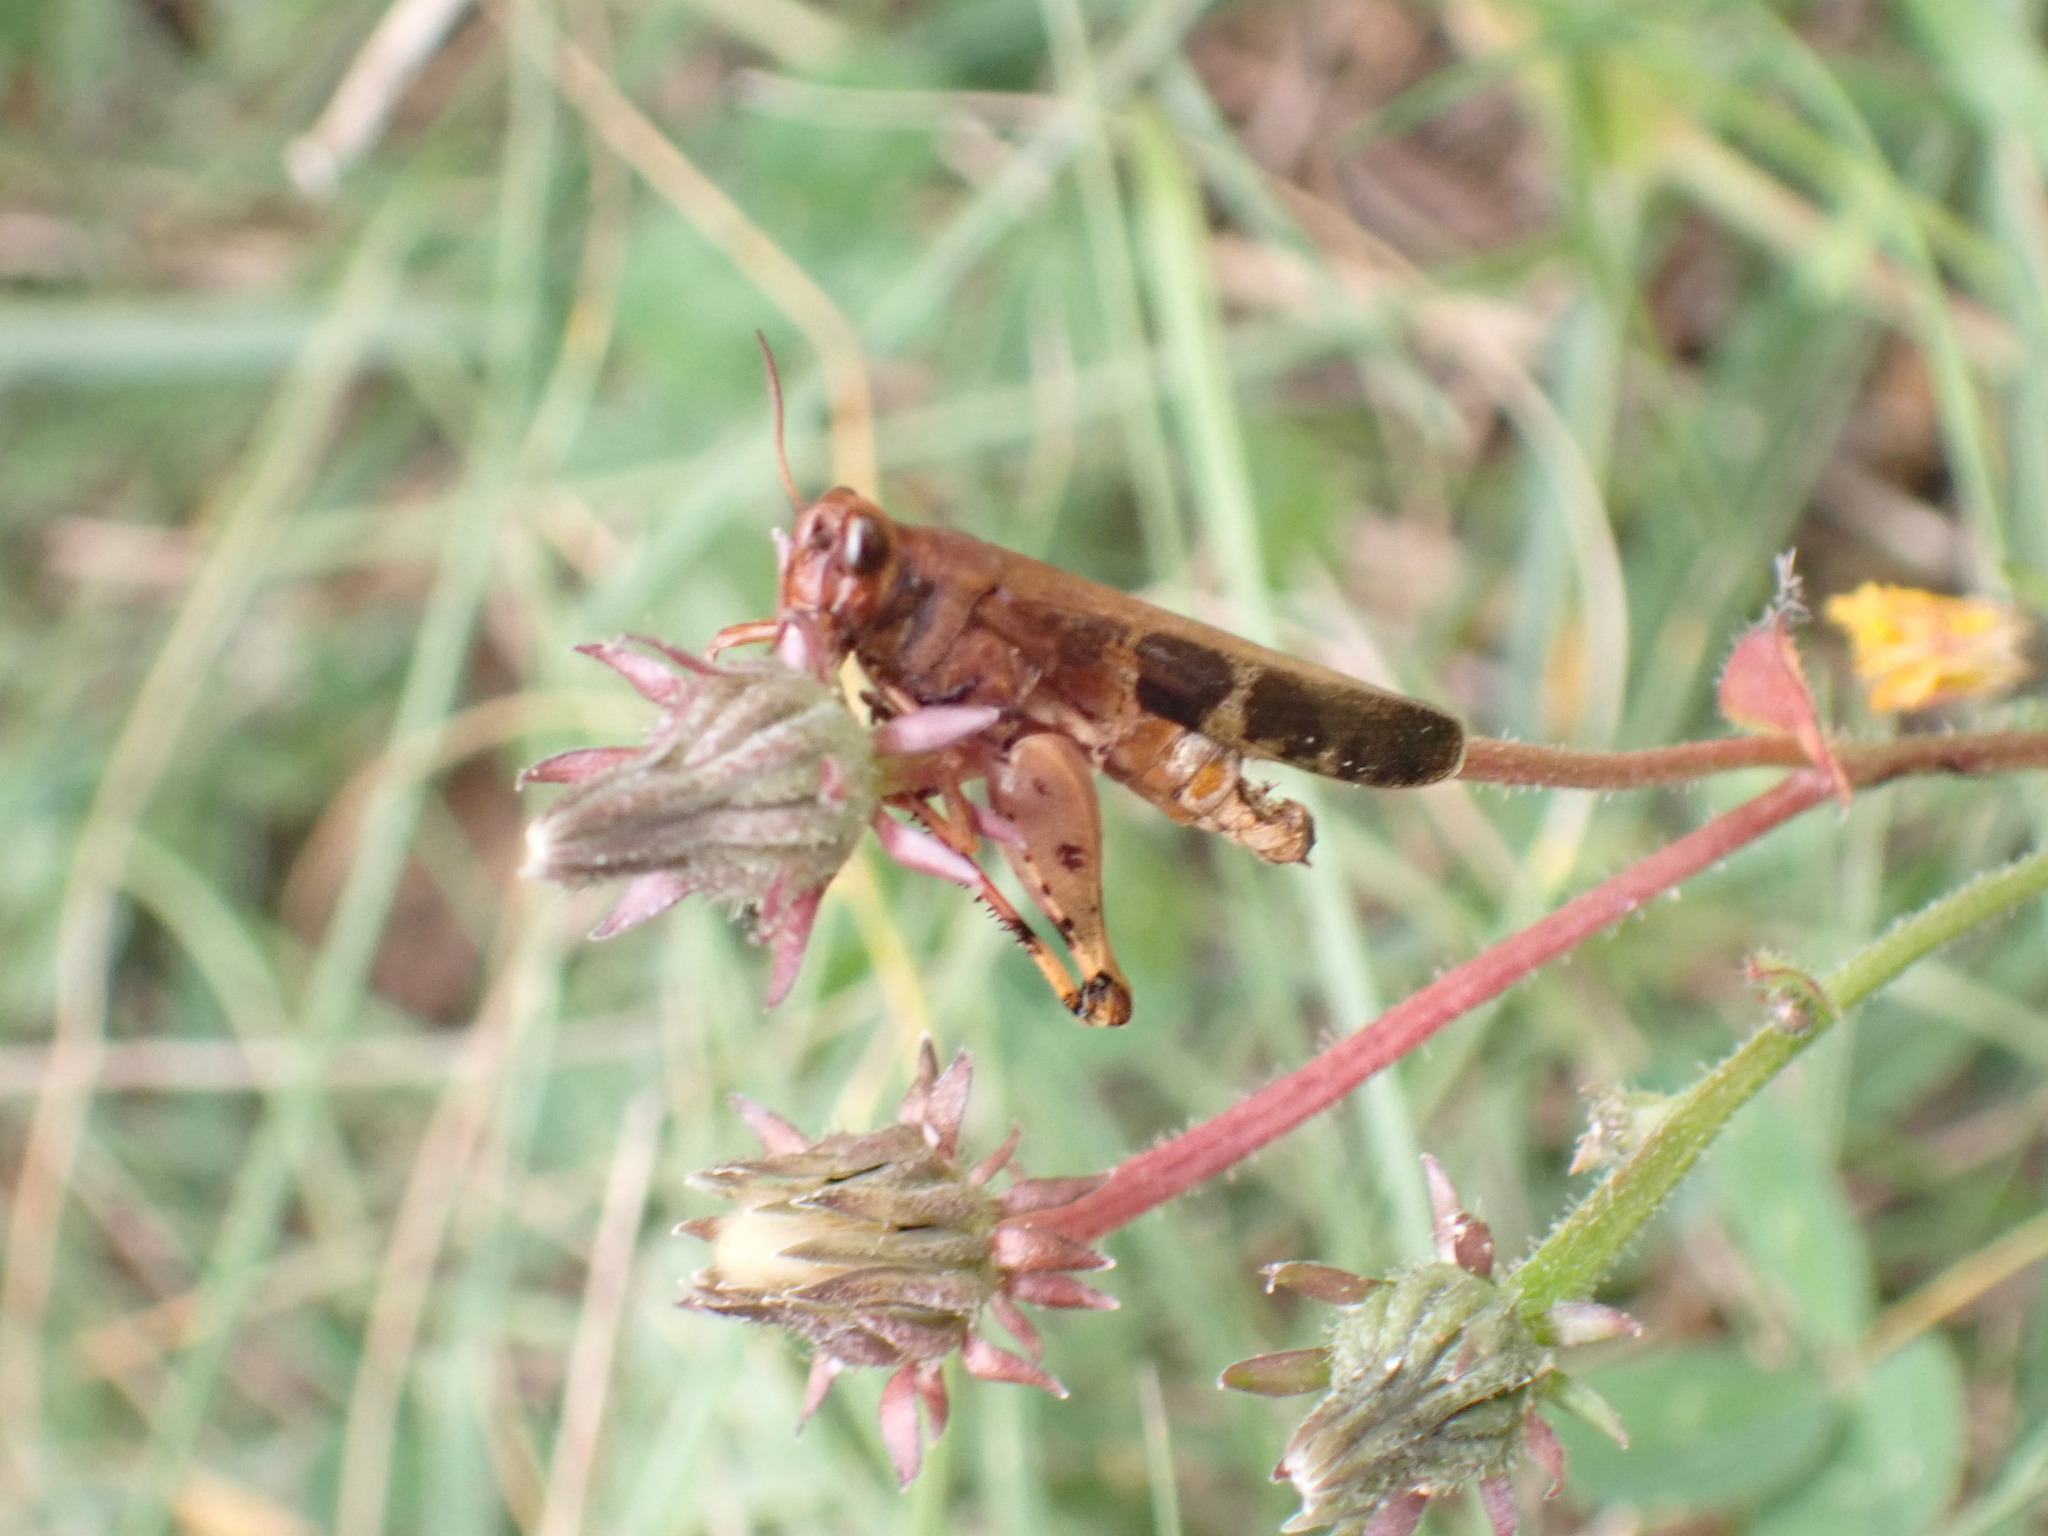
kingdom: Animalia
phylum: Arthropoda
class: Insecta
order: Orthoptera
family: Acrididae
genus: Aiolopus
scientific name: Aiolopus strepens
